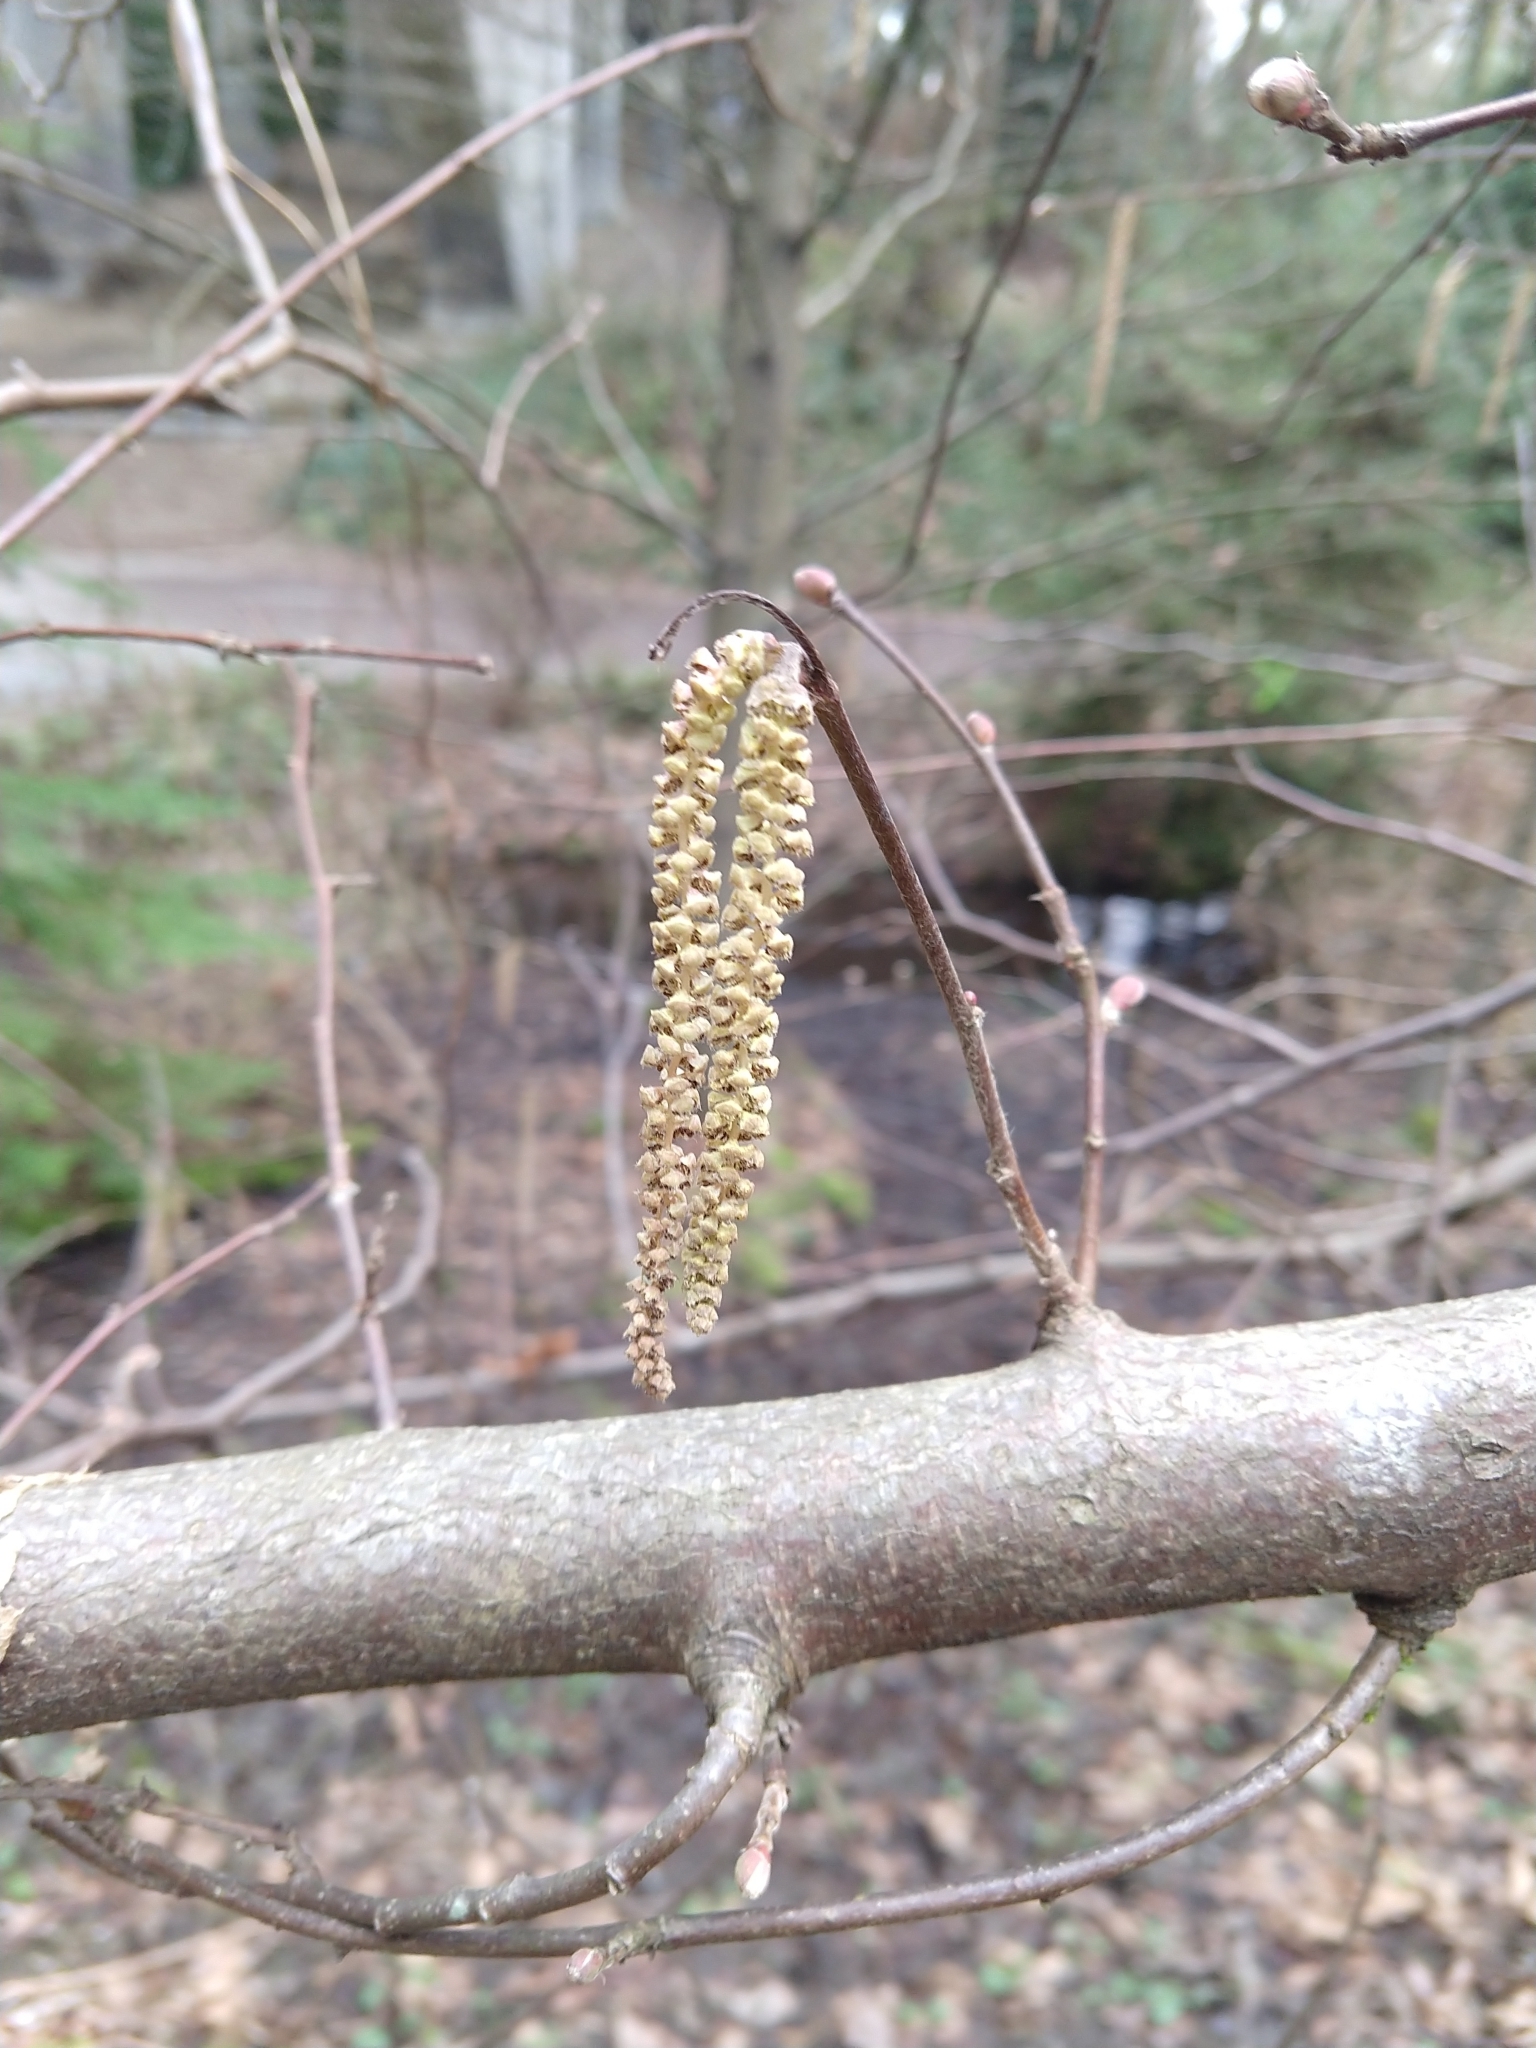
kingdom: Plantae
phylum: Tracheophyta
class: Magnoliopsida
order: Fagales
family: Betulaceae
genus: Corylus
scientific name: Corylus avellana
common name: European hazel
